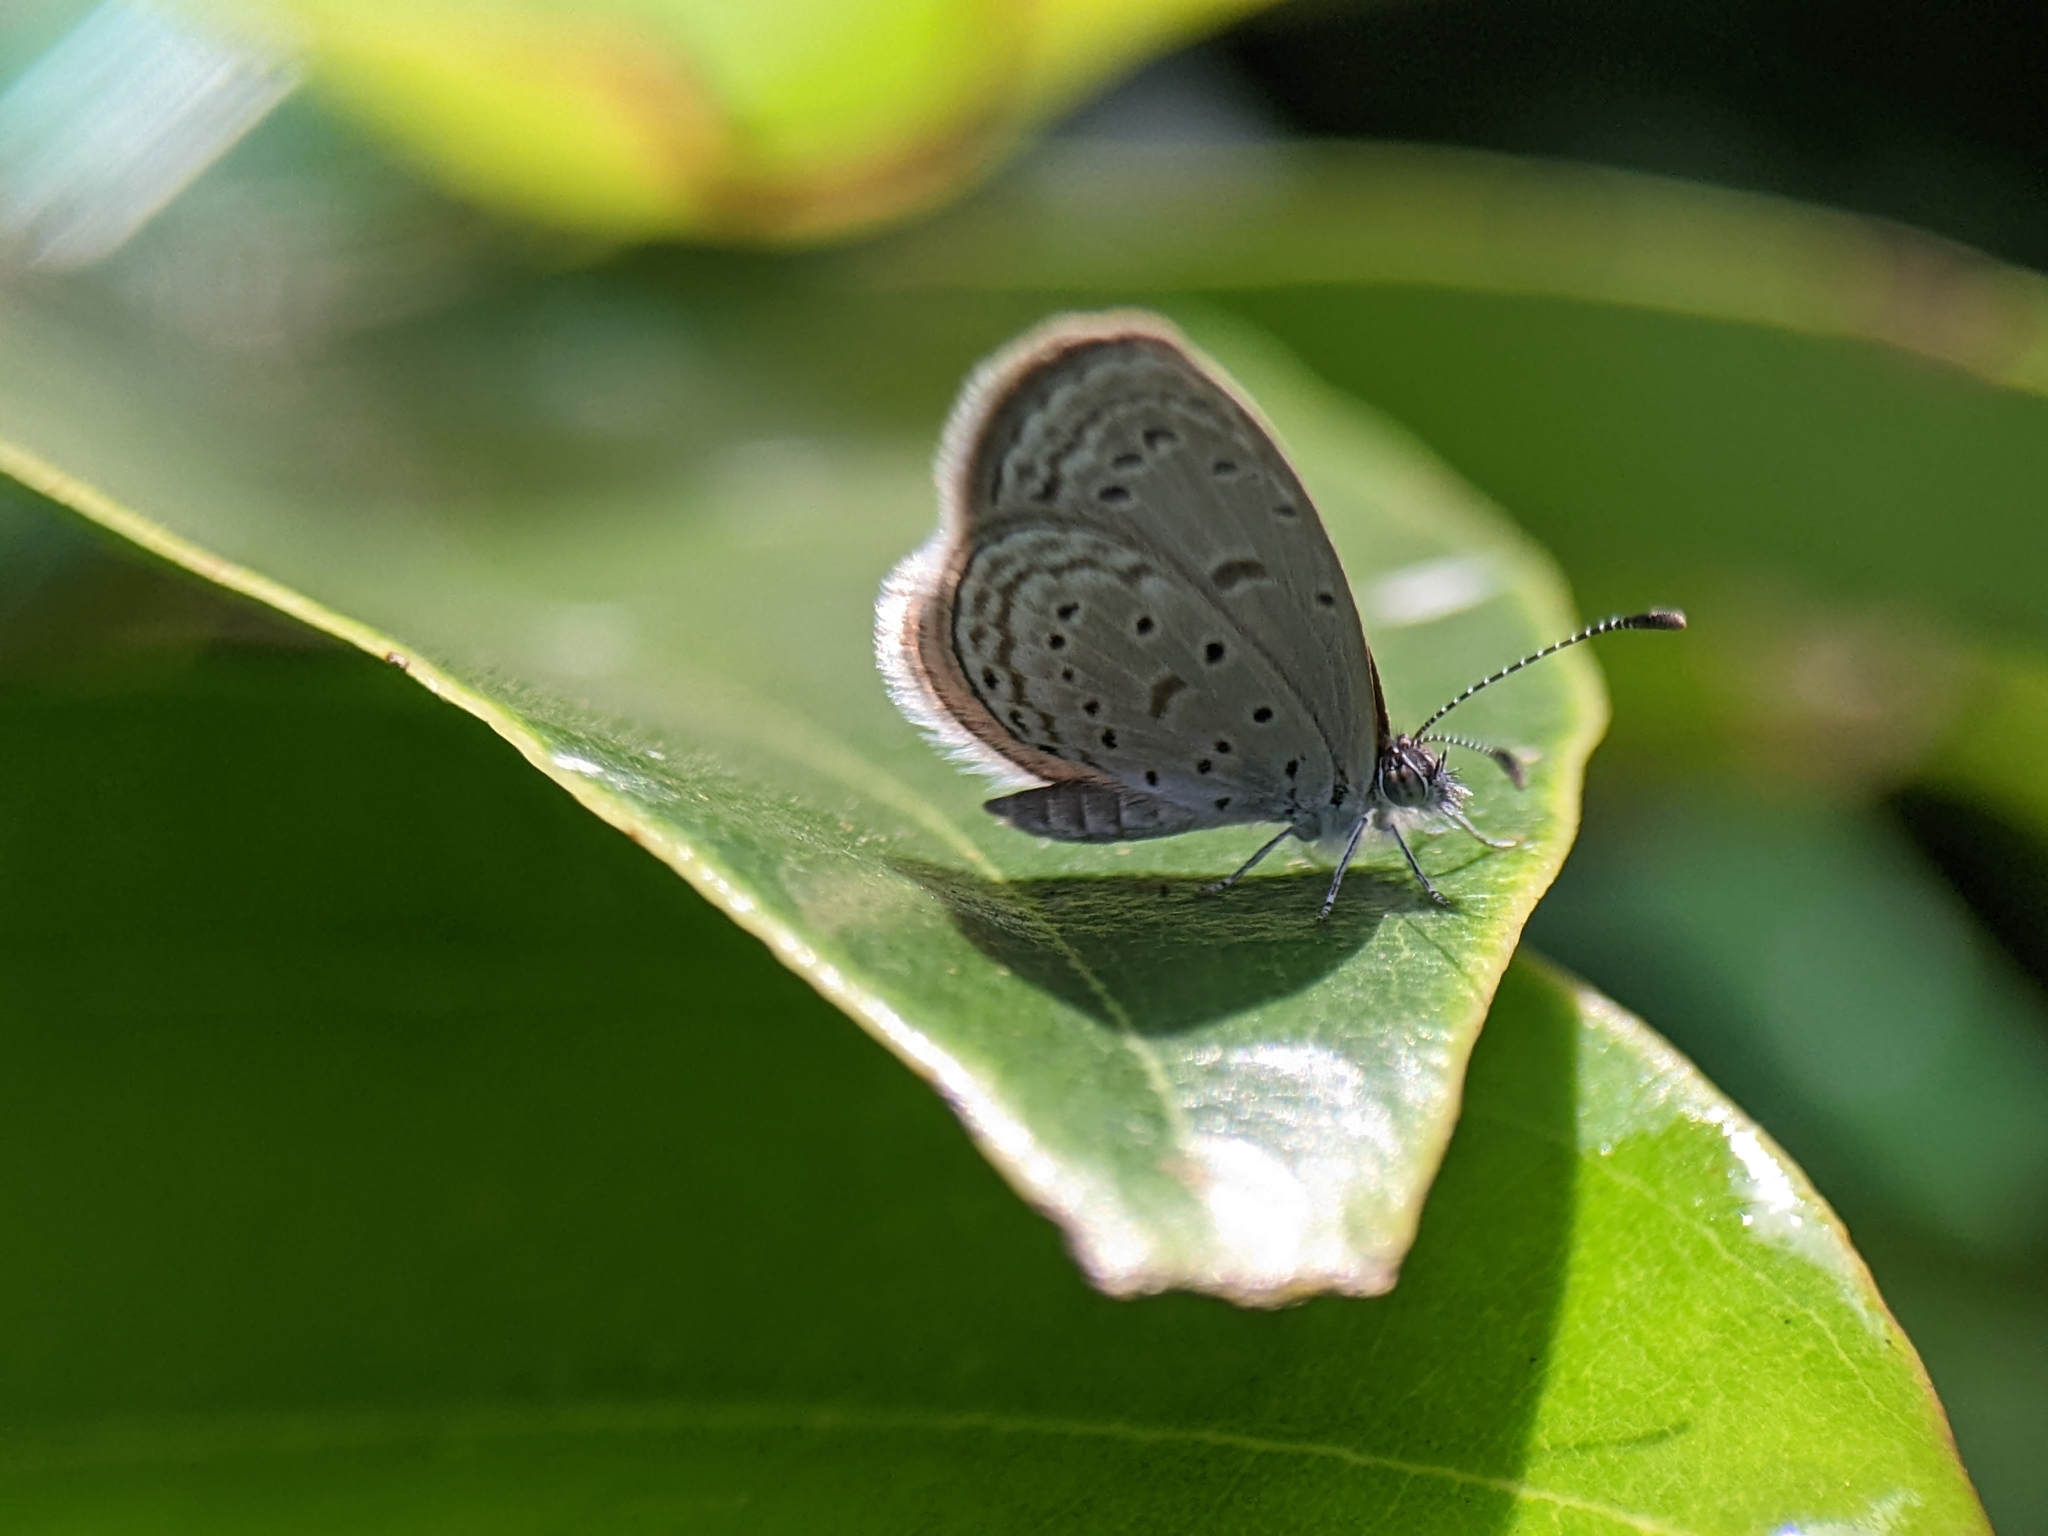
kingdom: Animalia
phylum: Arthropoda
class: Insecta
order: Lepidoptera
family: Lycaenidae
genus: Zizula
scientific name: Zizula hylax
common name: Gaika blue
